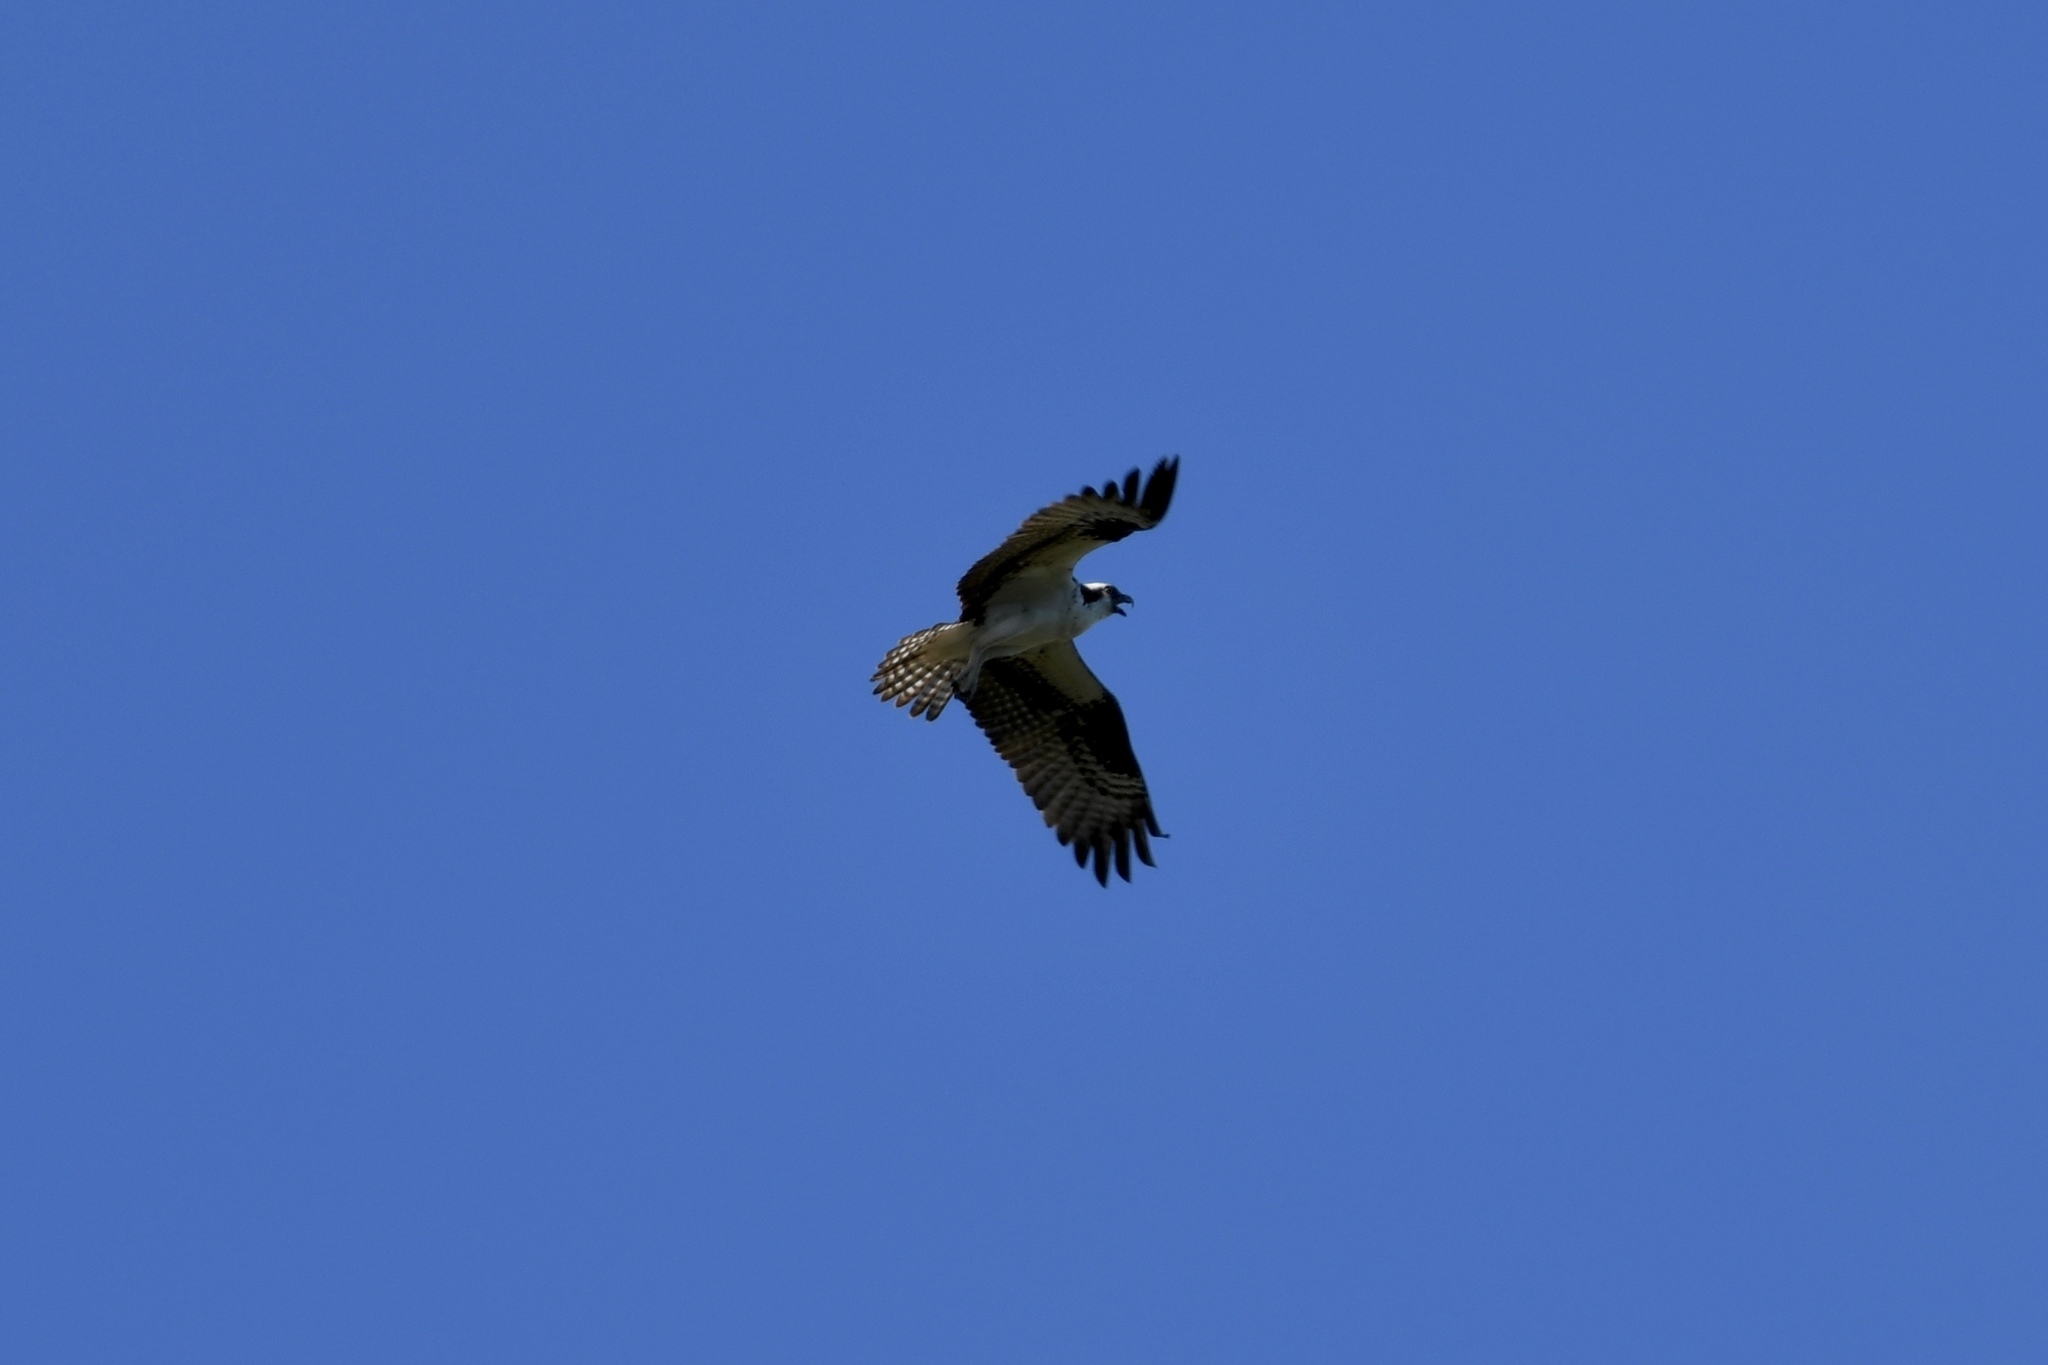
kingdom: Animalia
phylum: Chordata
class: Aves
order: Accipitriformes
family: Pandionidae
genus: Pandion
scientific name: Pandion haliaetus
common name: Osprey
